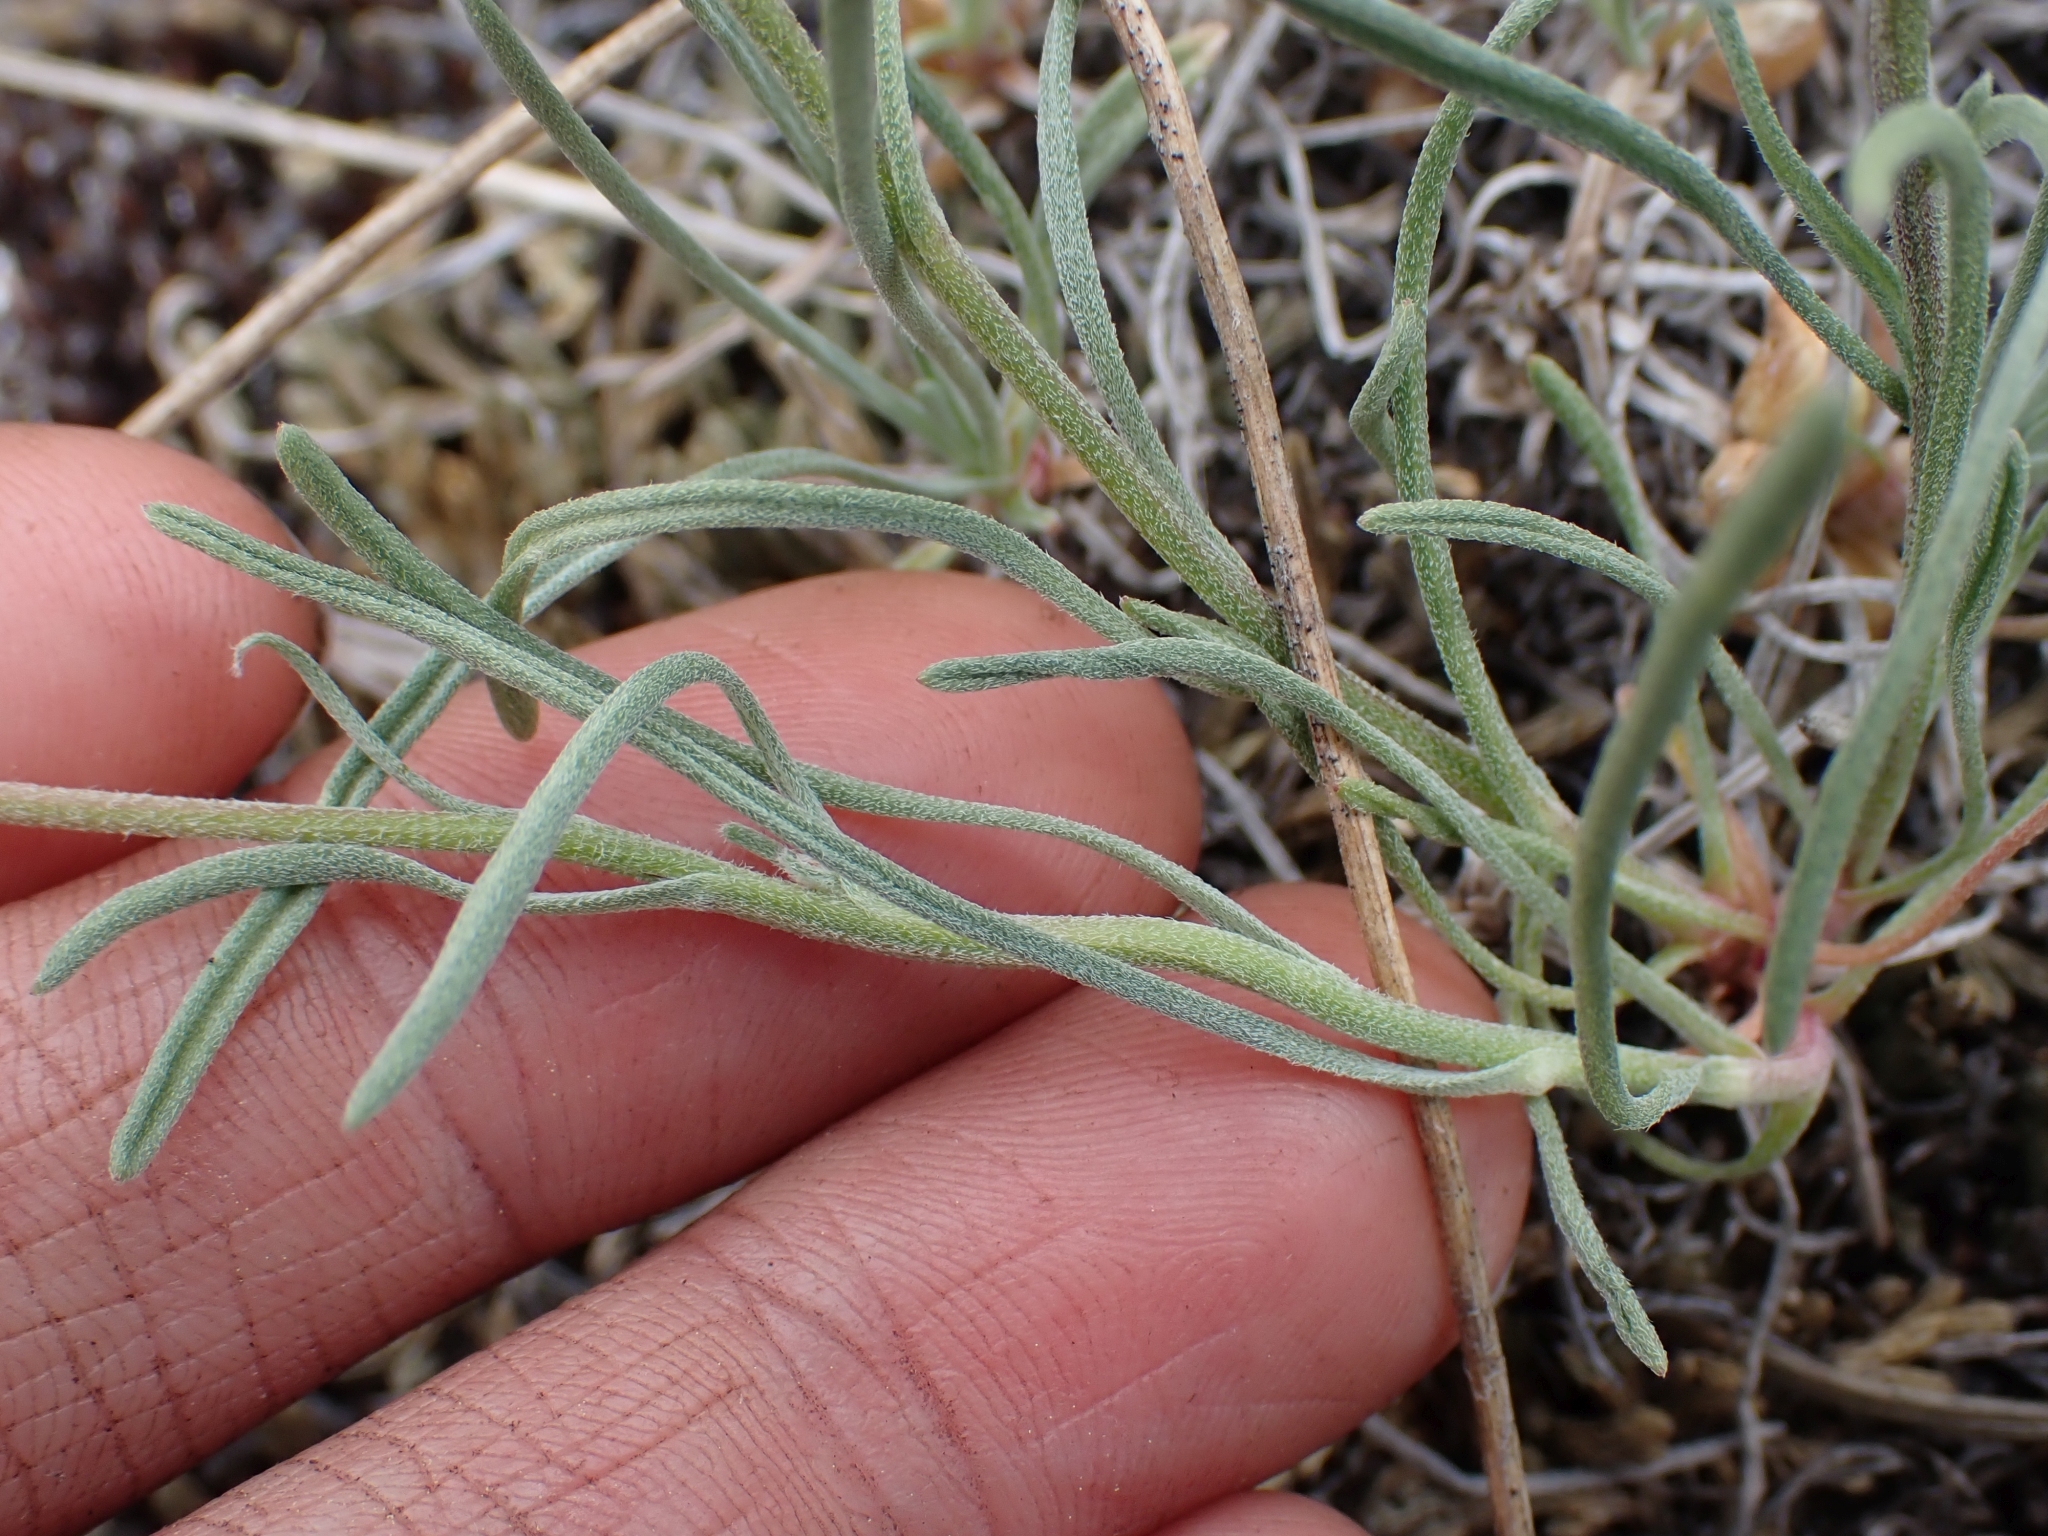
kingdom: Plantae
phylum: Tracheophyta
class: Magnoliopsida
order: Asterales
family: Asteraceae
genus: Erigeron
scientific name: Erigeron linearis
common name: Desert yellow fleabane
